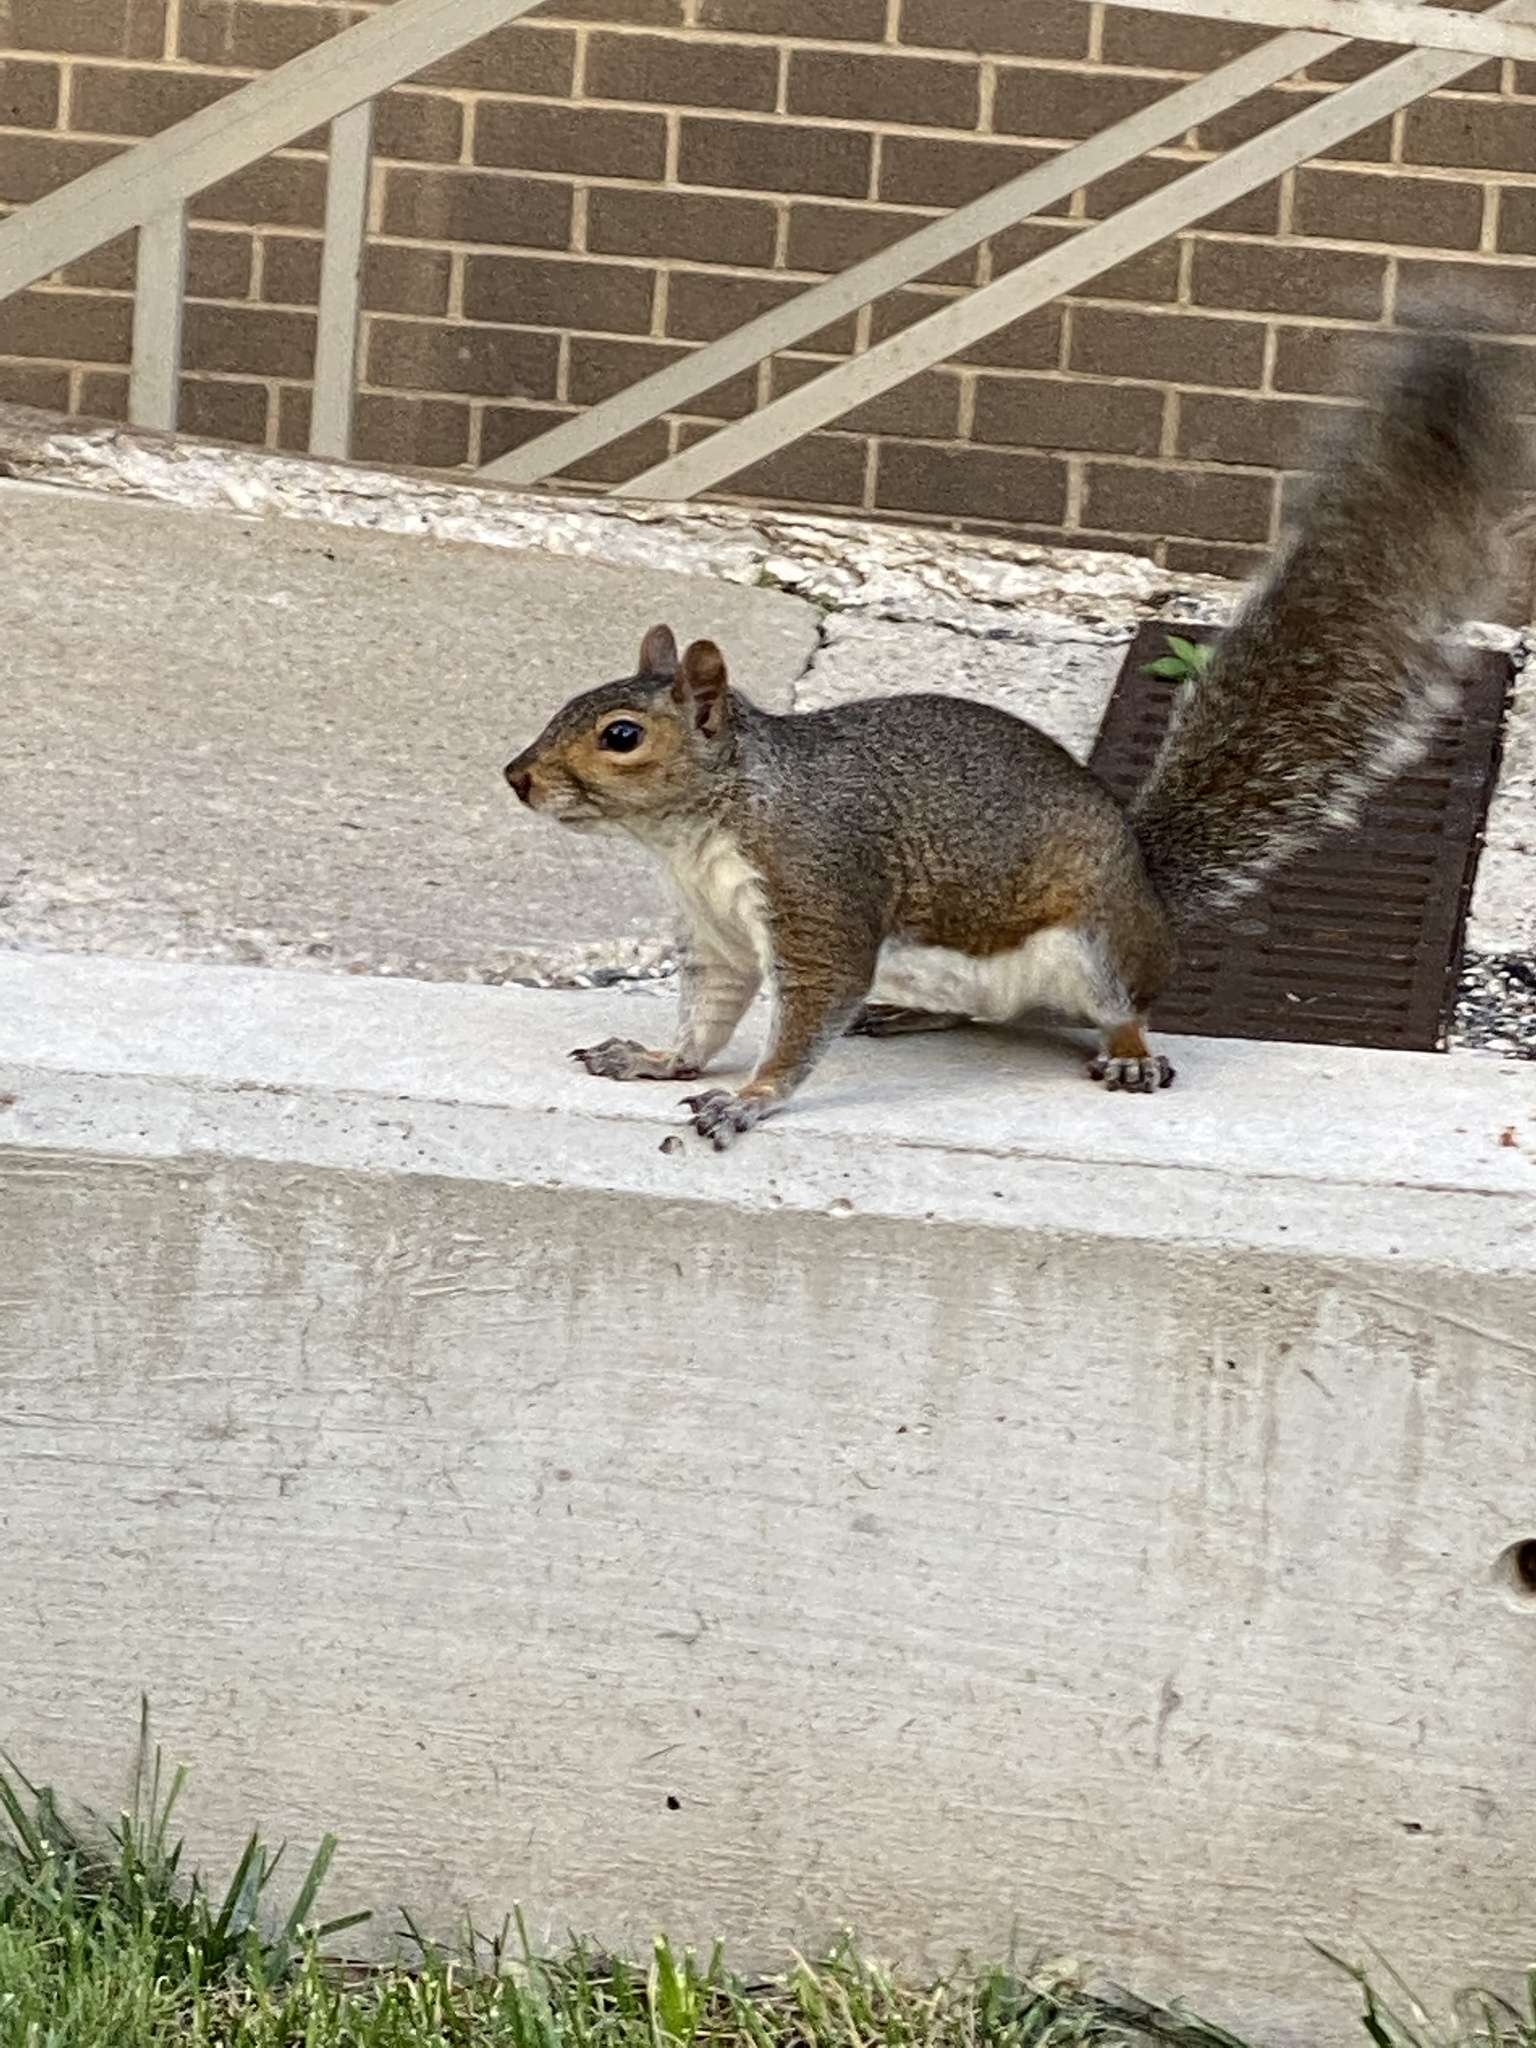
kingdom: Animalia
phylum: Chordata
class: Mammalia
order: Rodentia
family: Sciuridae
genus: Sciurus
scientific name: Sciurus carolinensis
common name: Eastern gray squirrel
